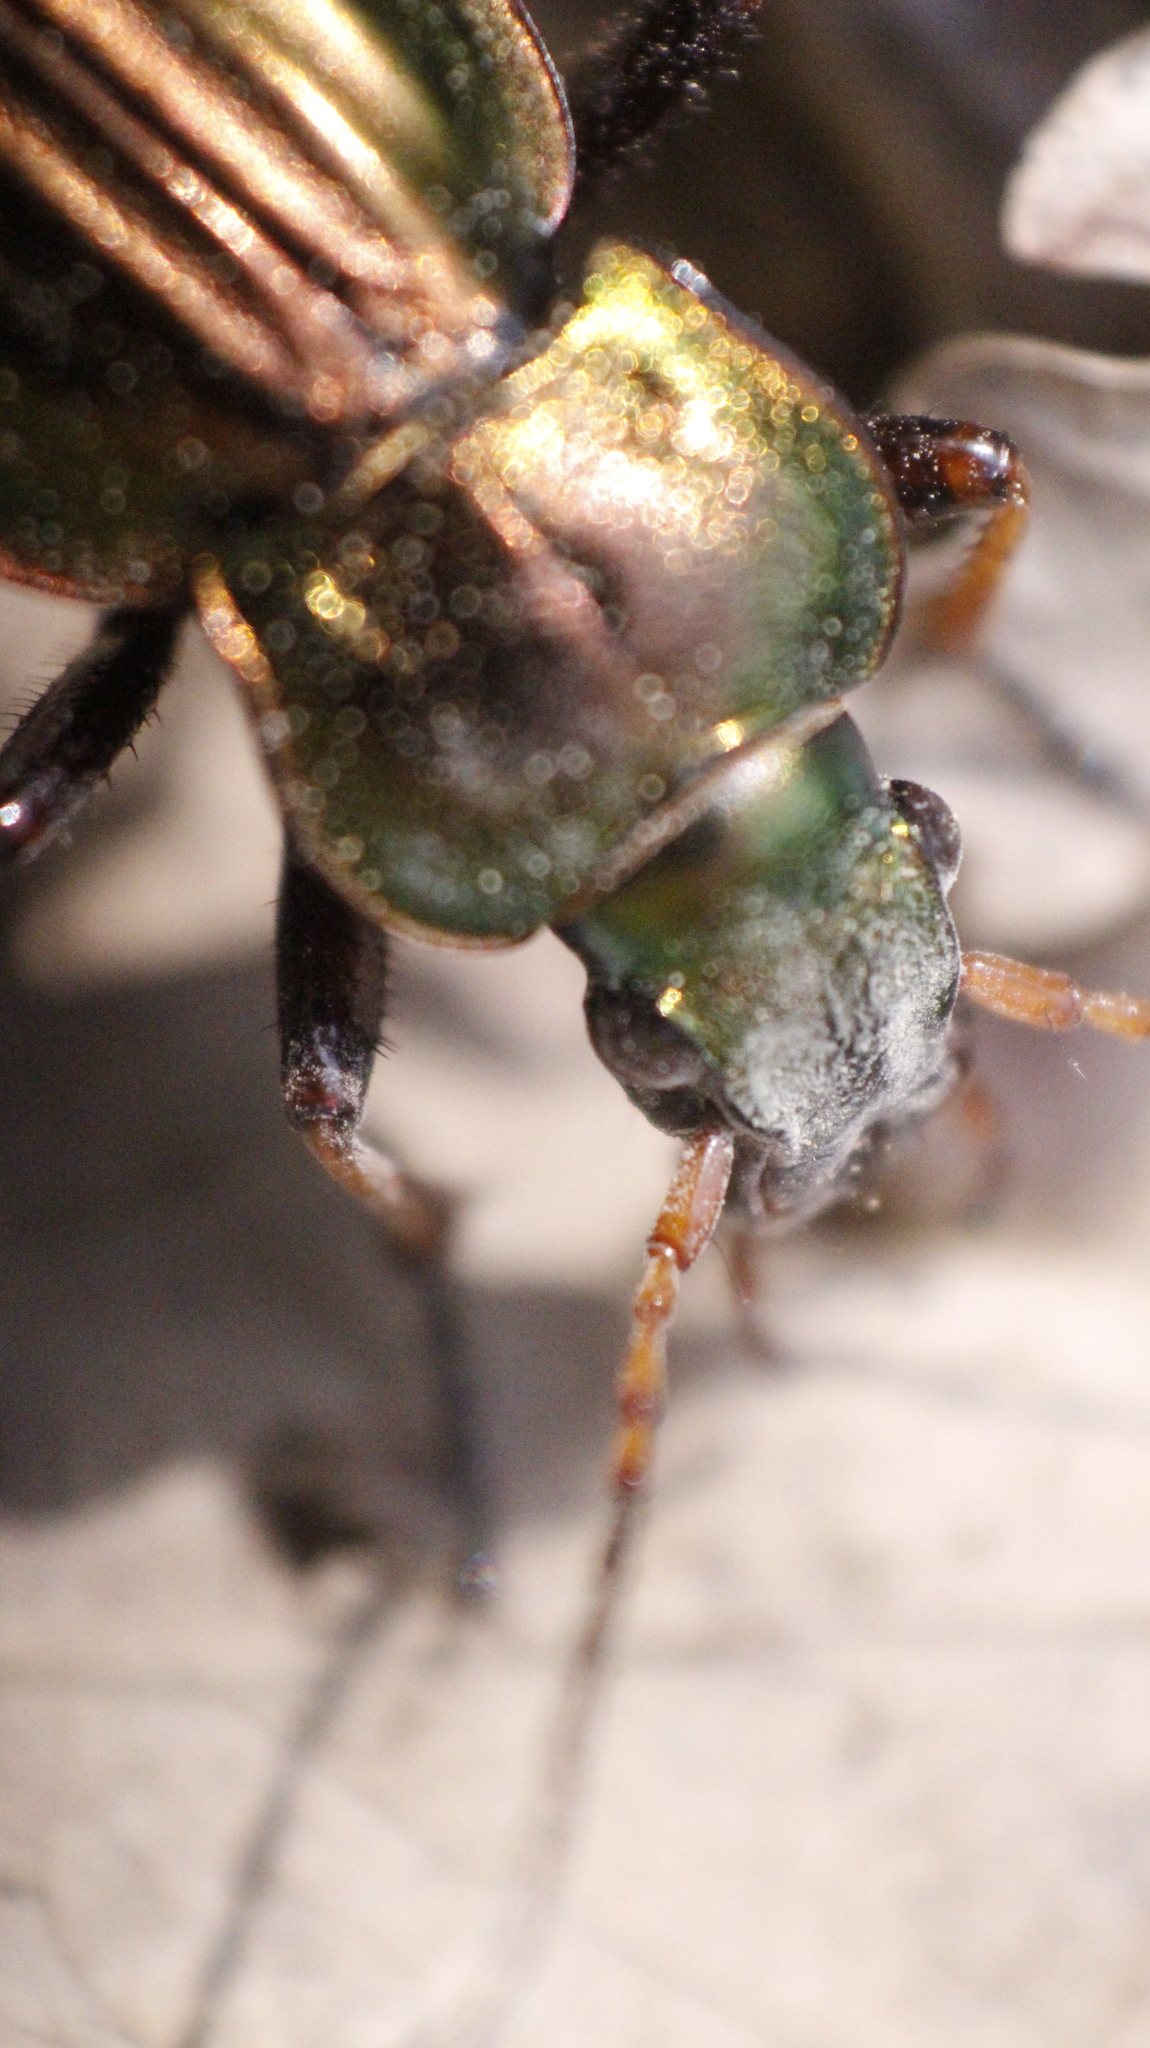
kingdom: Animalia
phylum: Arthropoda
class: Insecta
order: Coleoptera
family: Carabidae
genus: Carabus
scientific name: Carabus auratus
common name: Golden ground beetle
